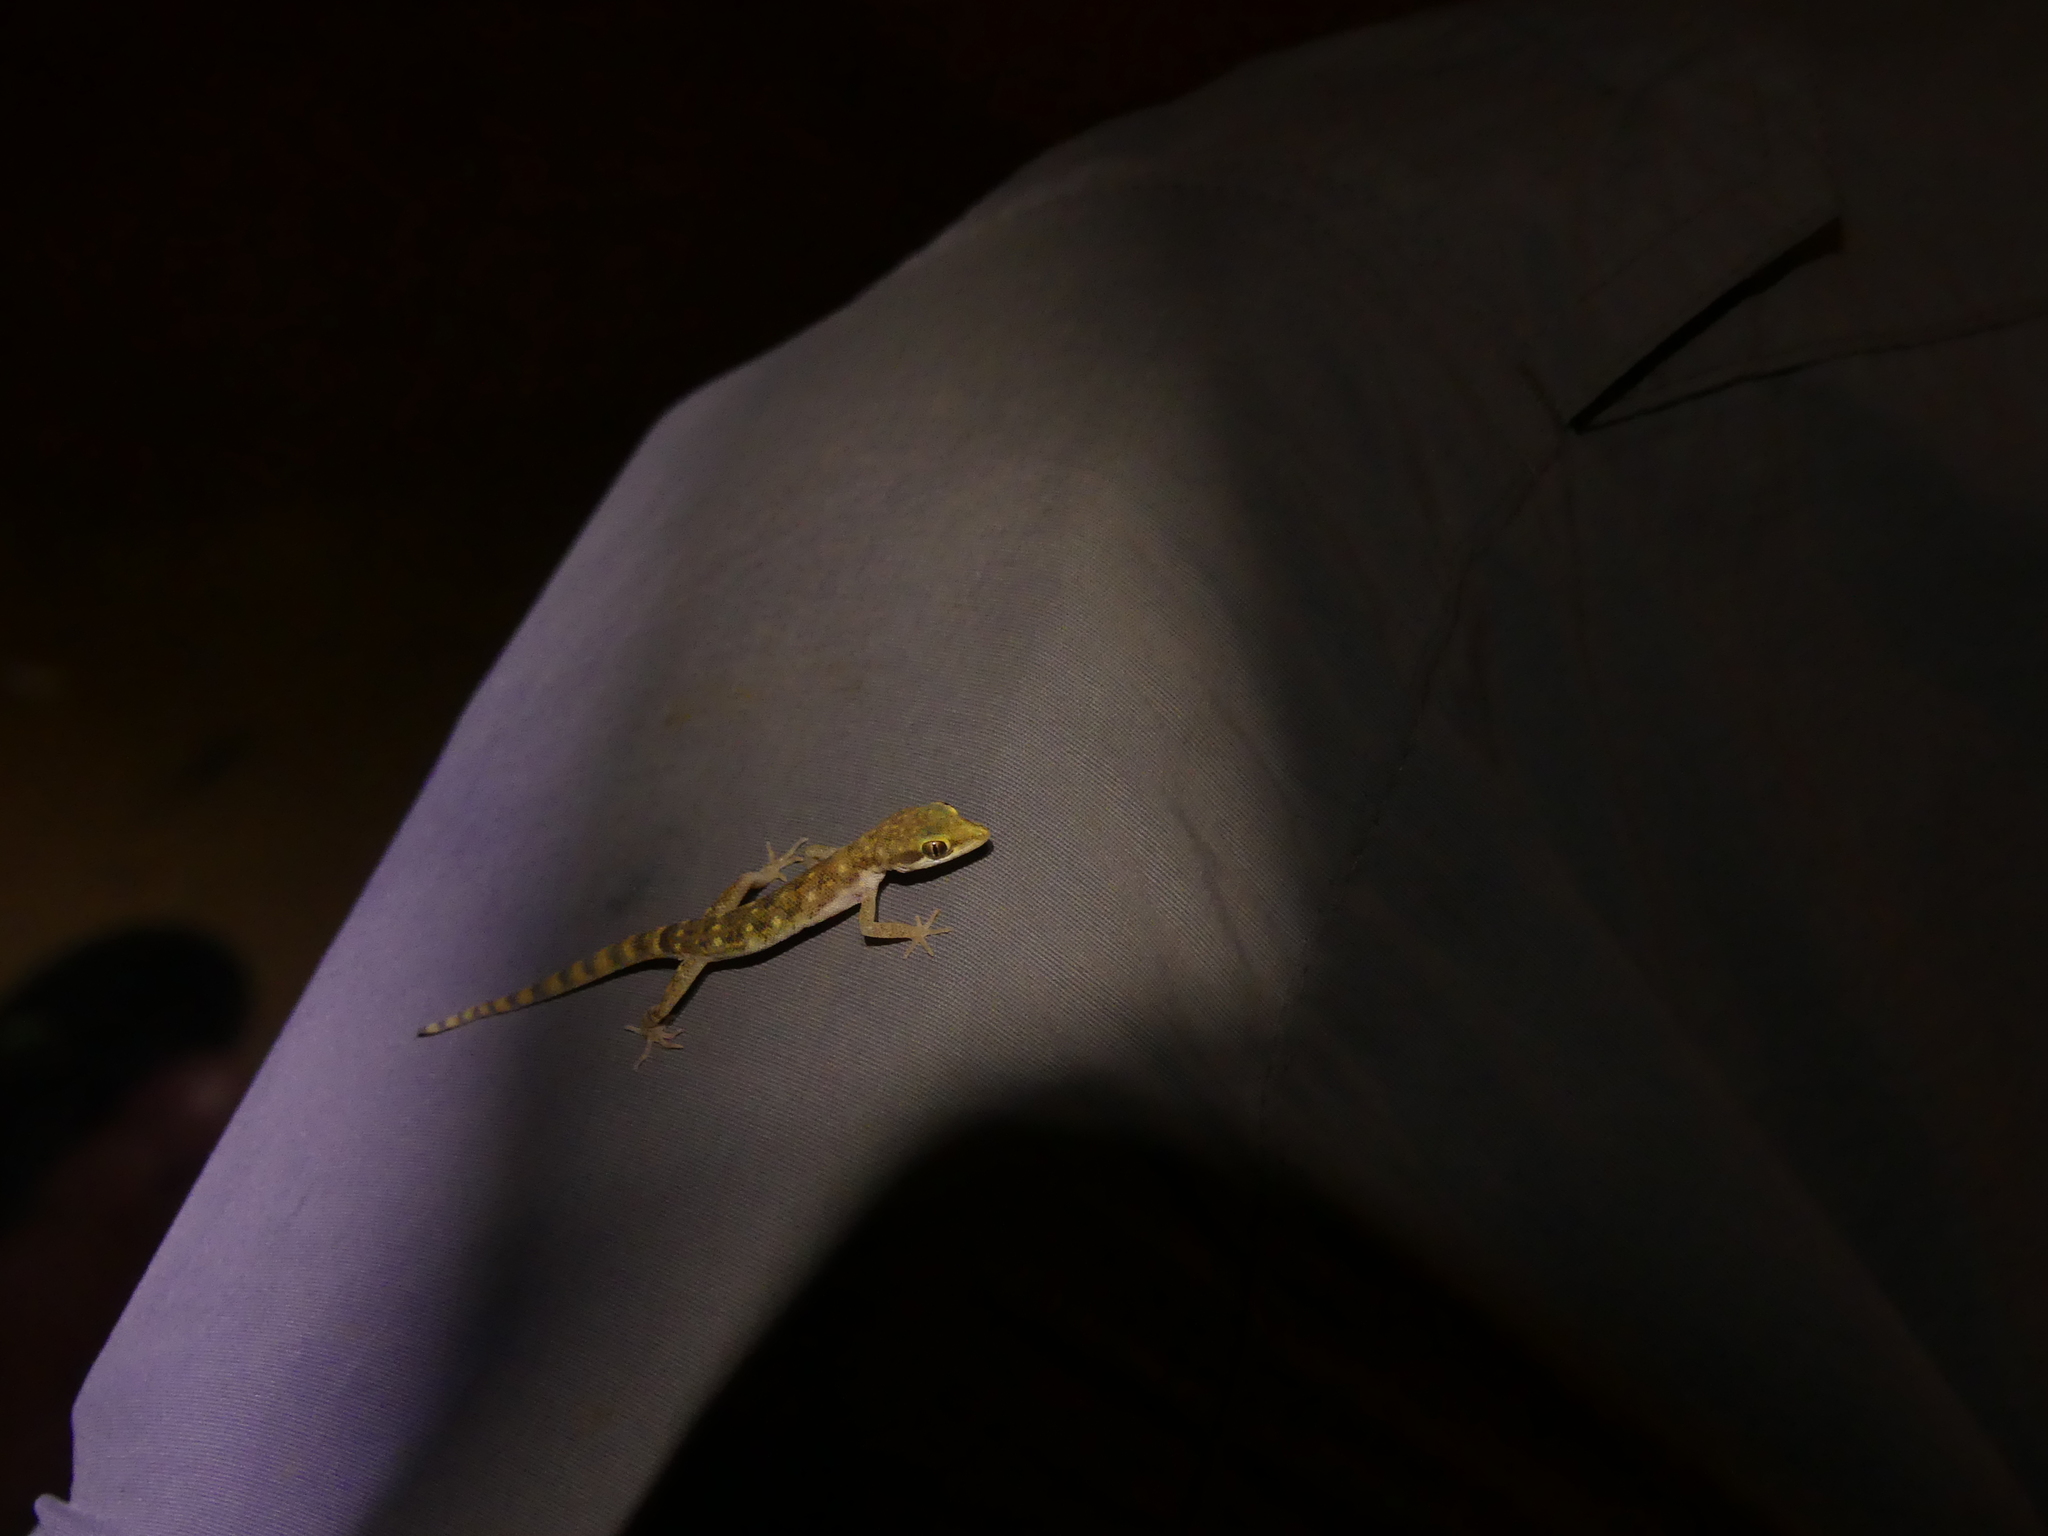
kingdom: Animalia
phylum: Chordata
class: Squamata
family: Gekkonidae
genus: Tropiocolotes
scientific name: Tropiocolotes steudneri
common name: Algerian sand gecko
